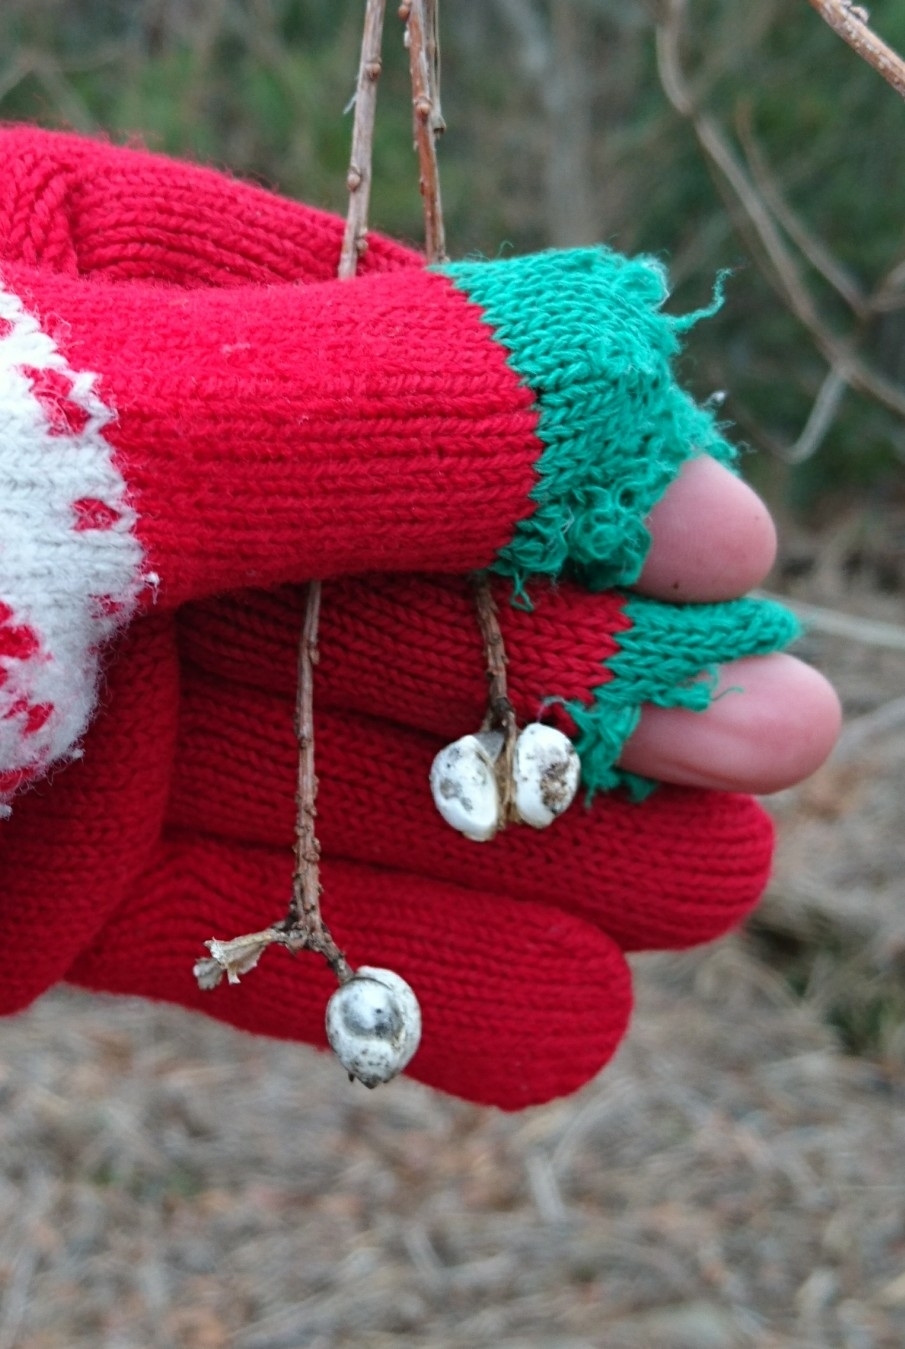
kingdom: Plantae
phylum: Tracheophyta
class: Magnoliopsida
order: Malpighiales
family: Euphorbiaceae
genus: Triadica
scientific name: Triadica sebifera
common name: Chinese tallow
